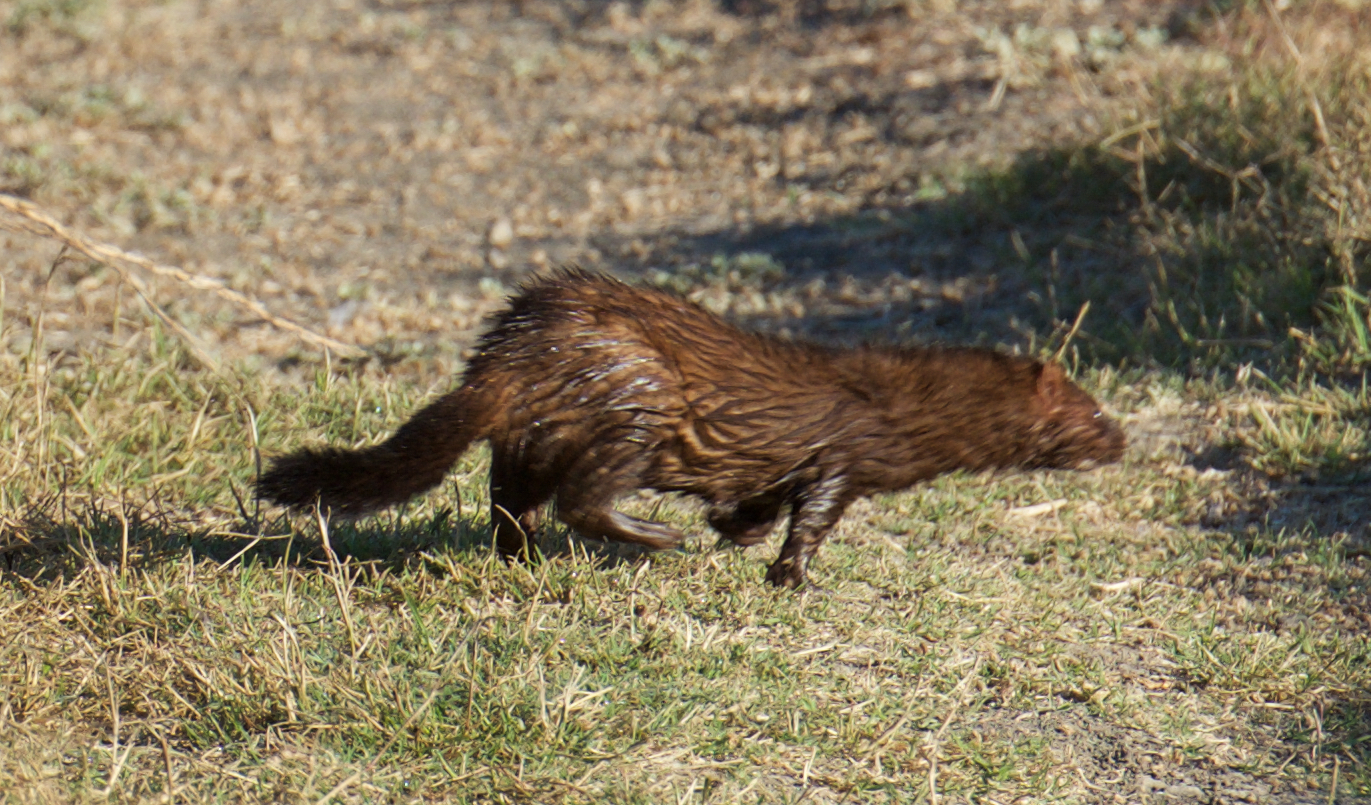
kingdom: Animalia
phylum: Chordata
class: Mammalia
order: Carnivora
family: Mustelidae
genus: Mustela
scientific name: Mustela
